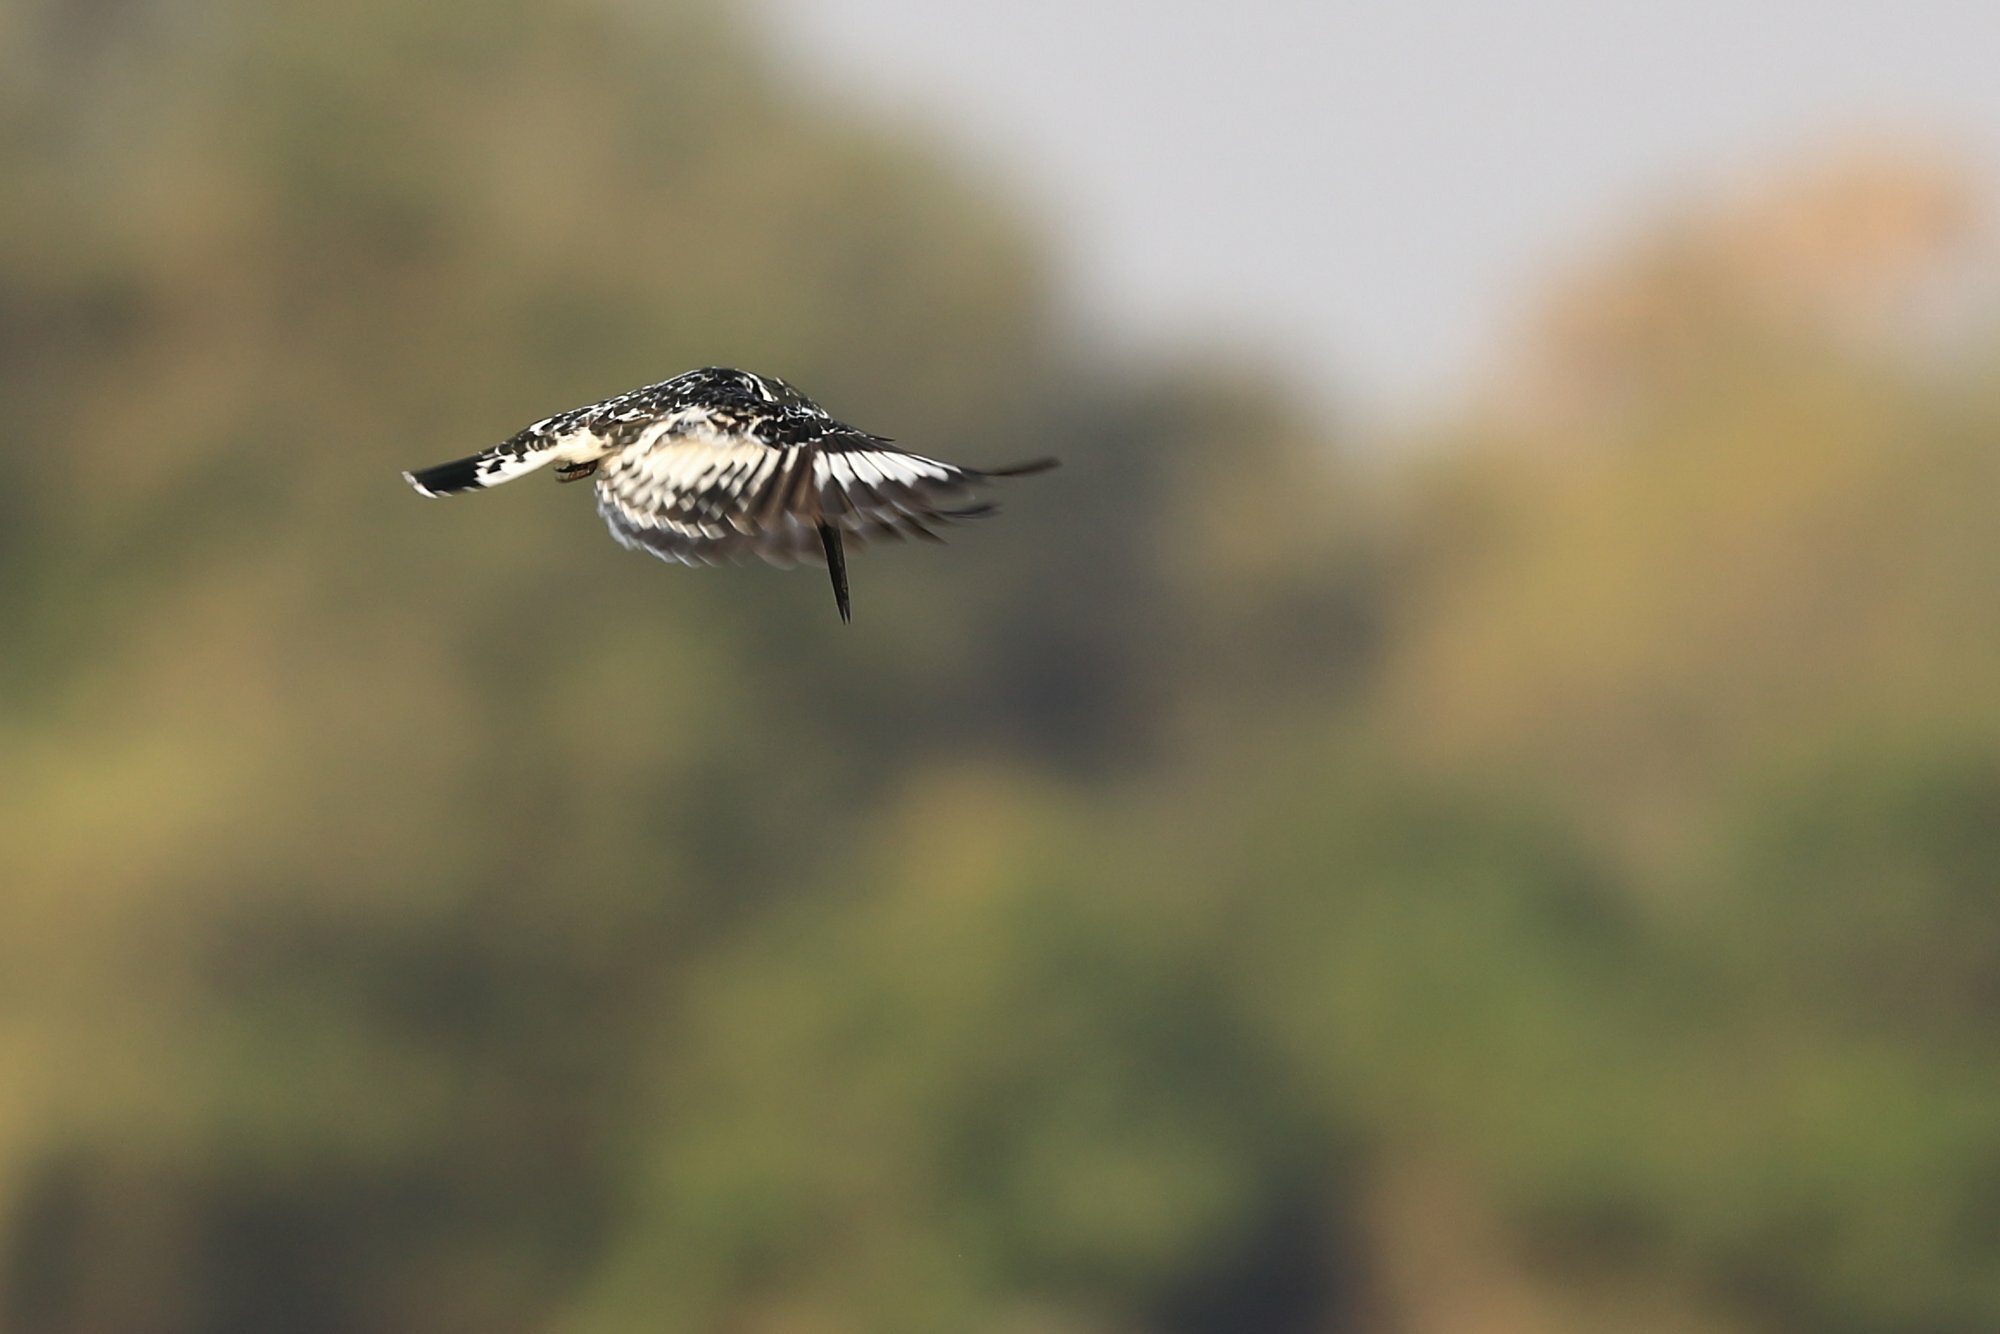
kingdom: Animalia
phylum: Chordata
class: Aves
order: Coraciiformes
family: Alcedinidae
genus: Ceryle
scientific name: Ceryle rudis
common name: Pied kingfisher
